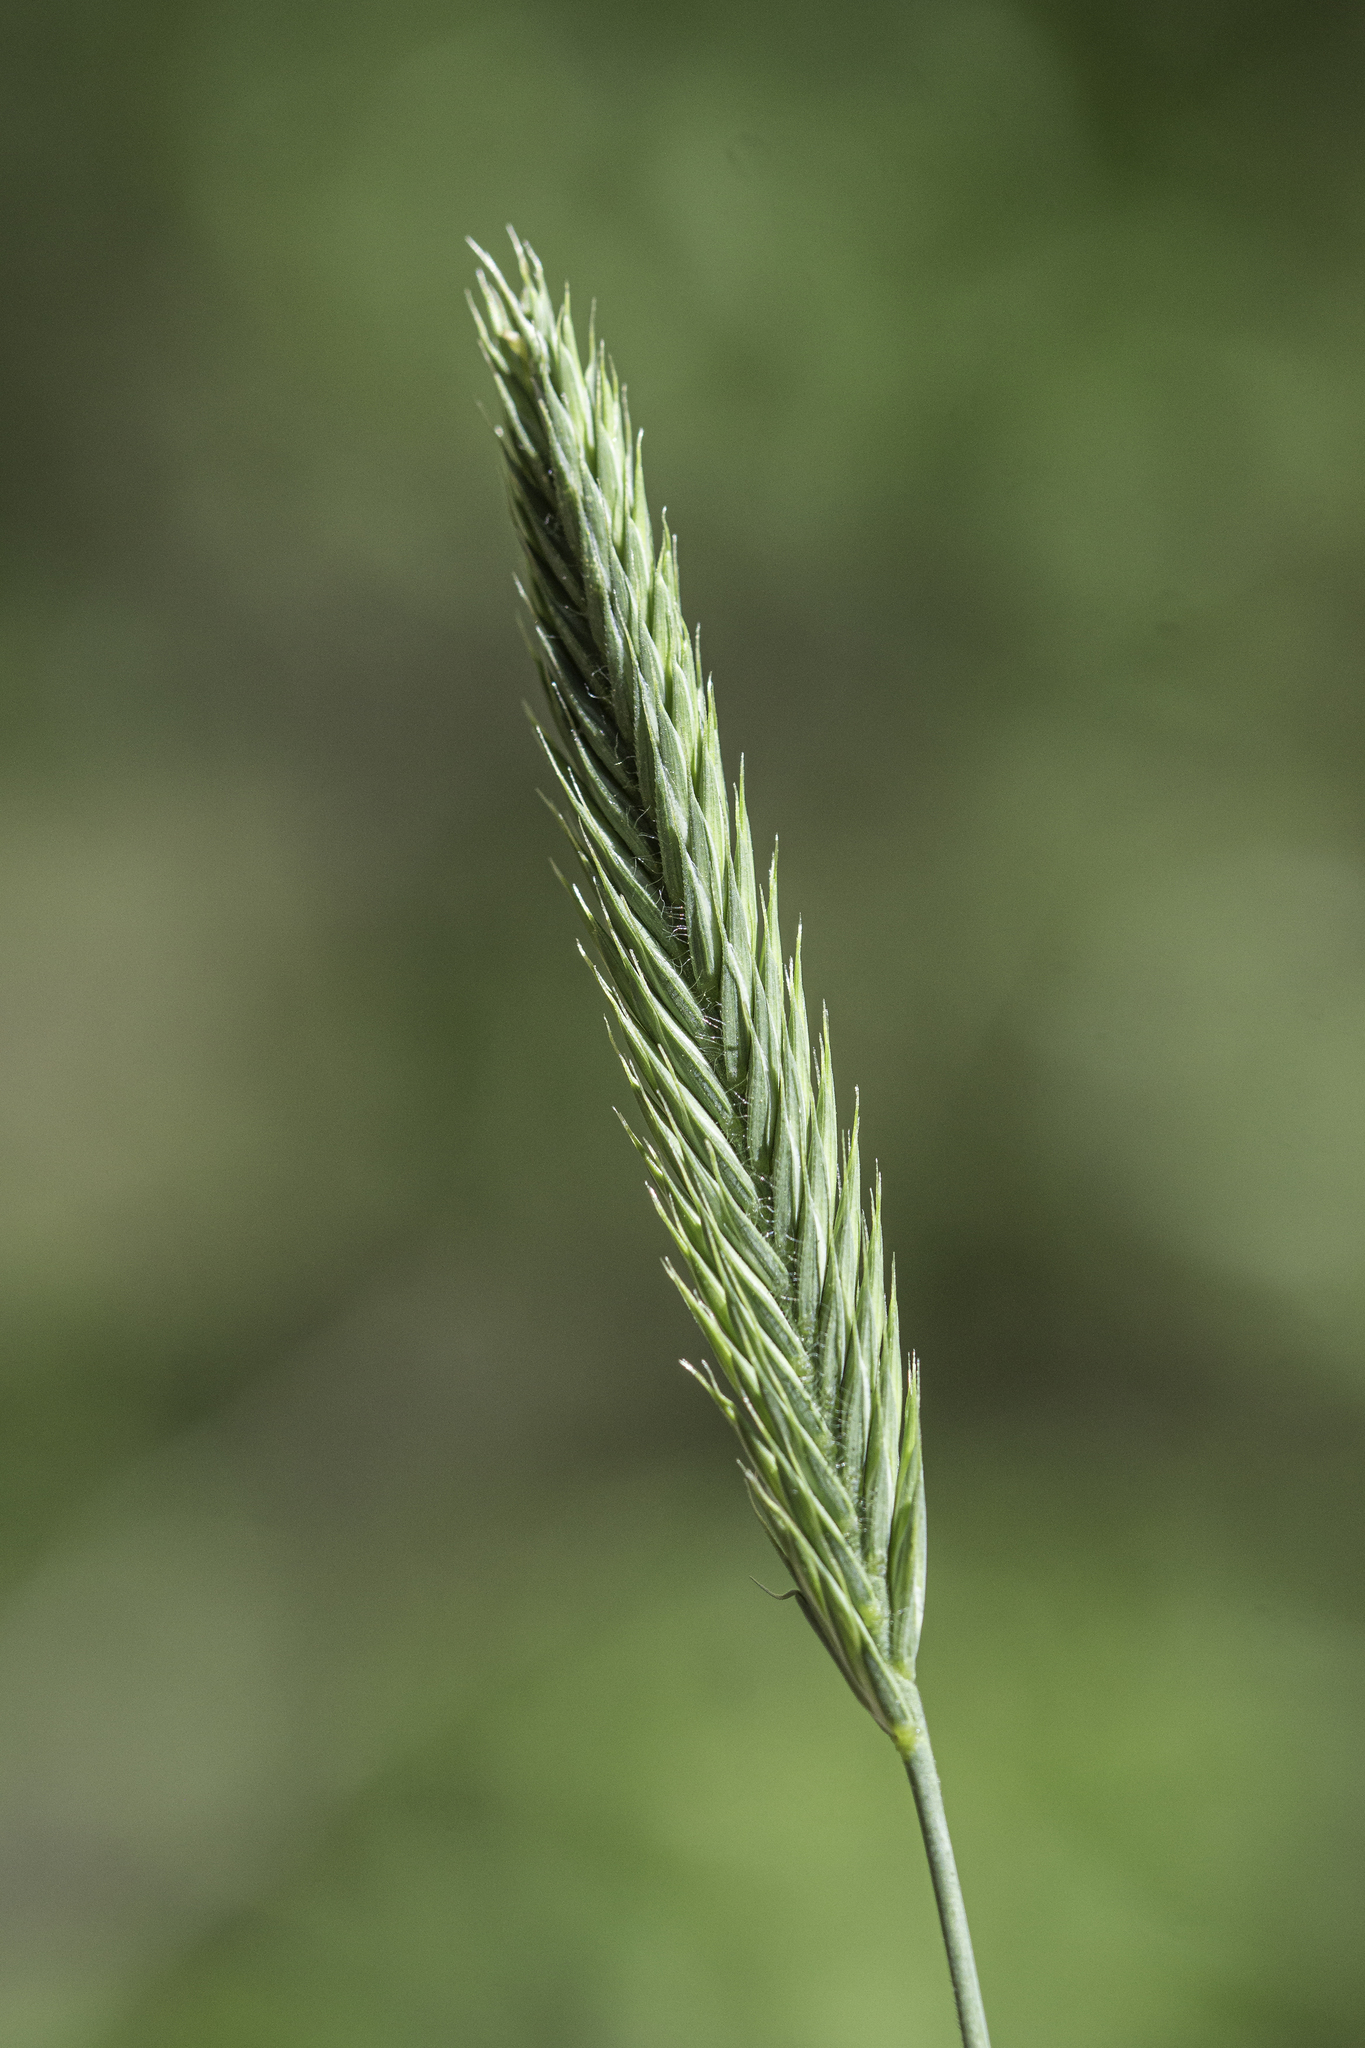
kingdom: Plantae
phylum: Tracheophyta
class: Liliopsida
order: Poales
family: Poaceae
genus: Agropyron
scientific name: Agropyron cristatum
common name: Crested wheatgrass
